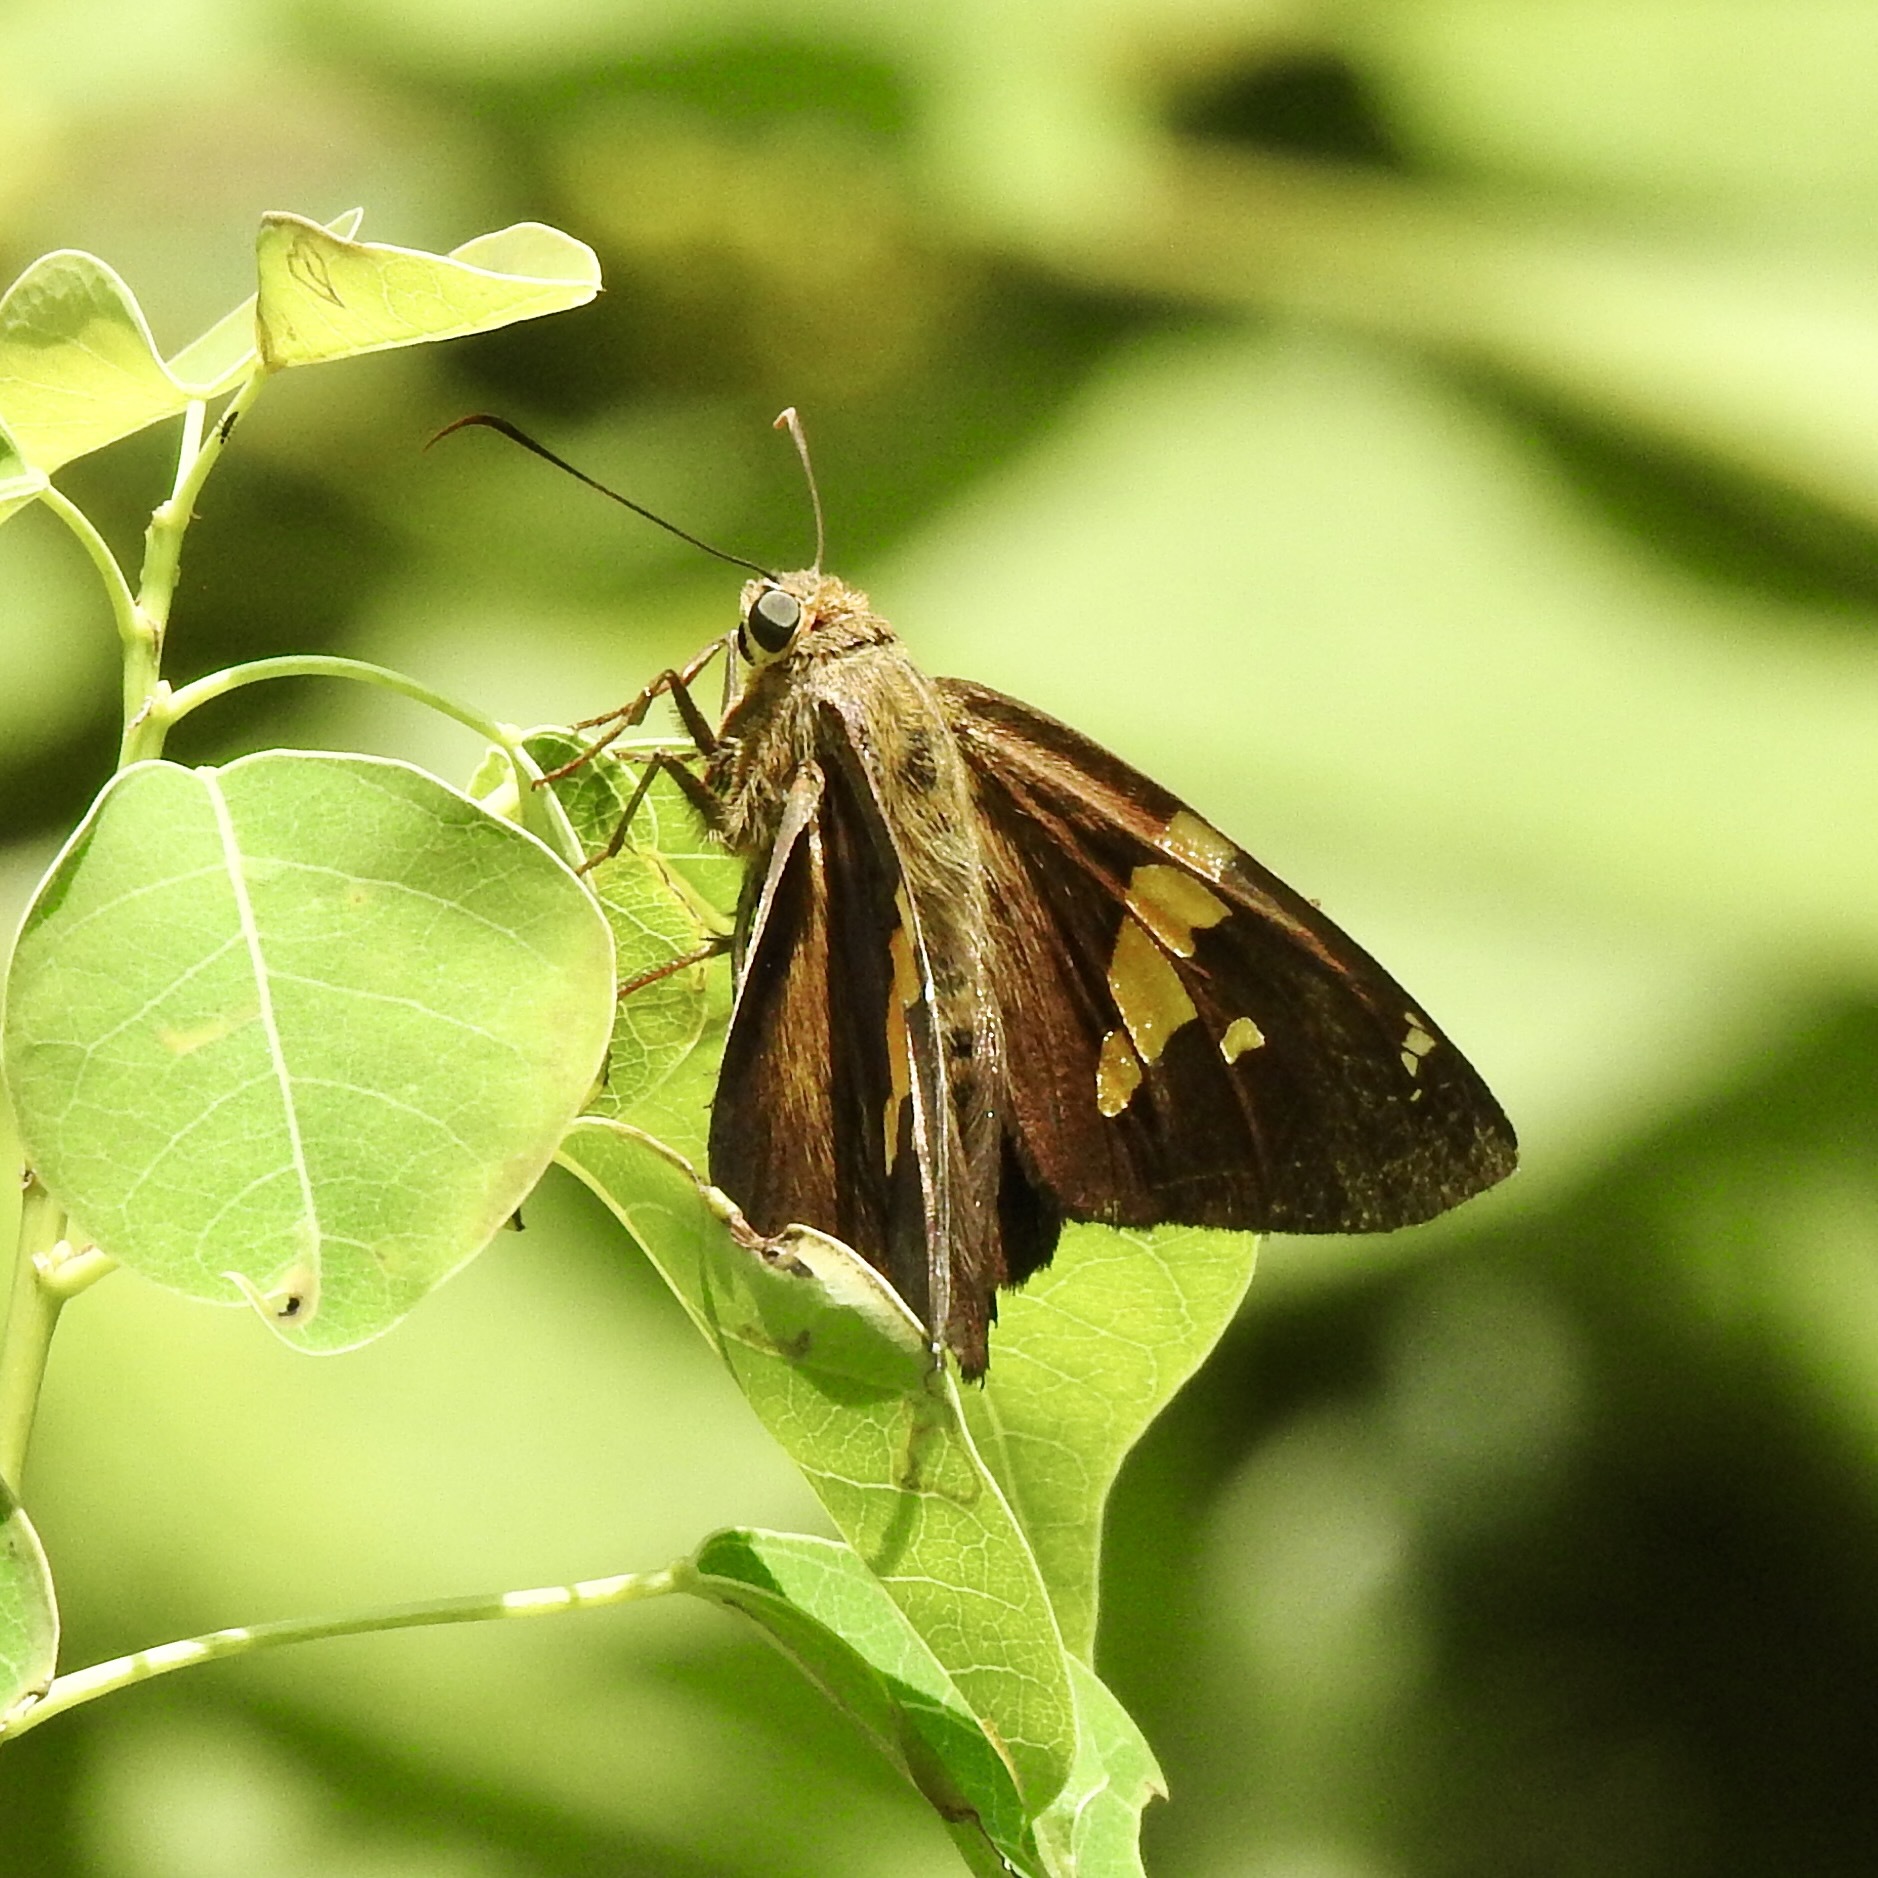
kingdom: Animalia
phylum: Arthropoda
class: Insecta
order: Lepidoptera
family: Hesperiidae
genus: Epargyreus
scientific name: Epargyreus clarus
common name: Silver-spotted skipper
